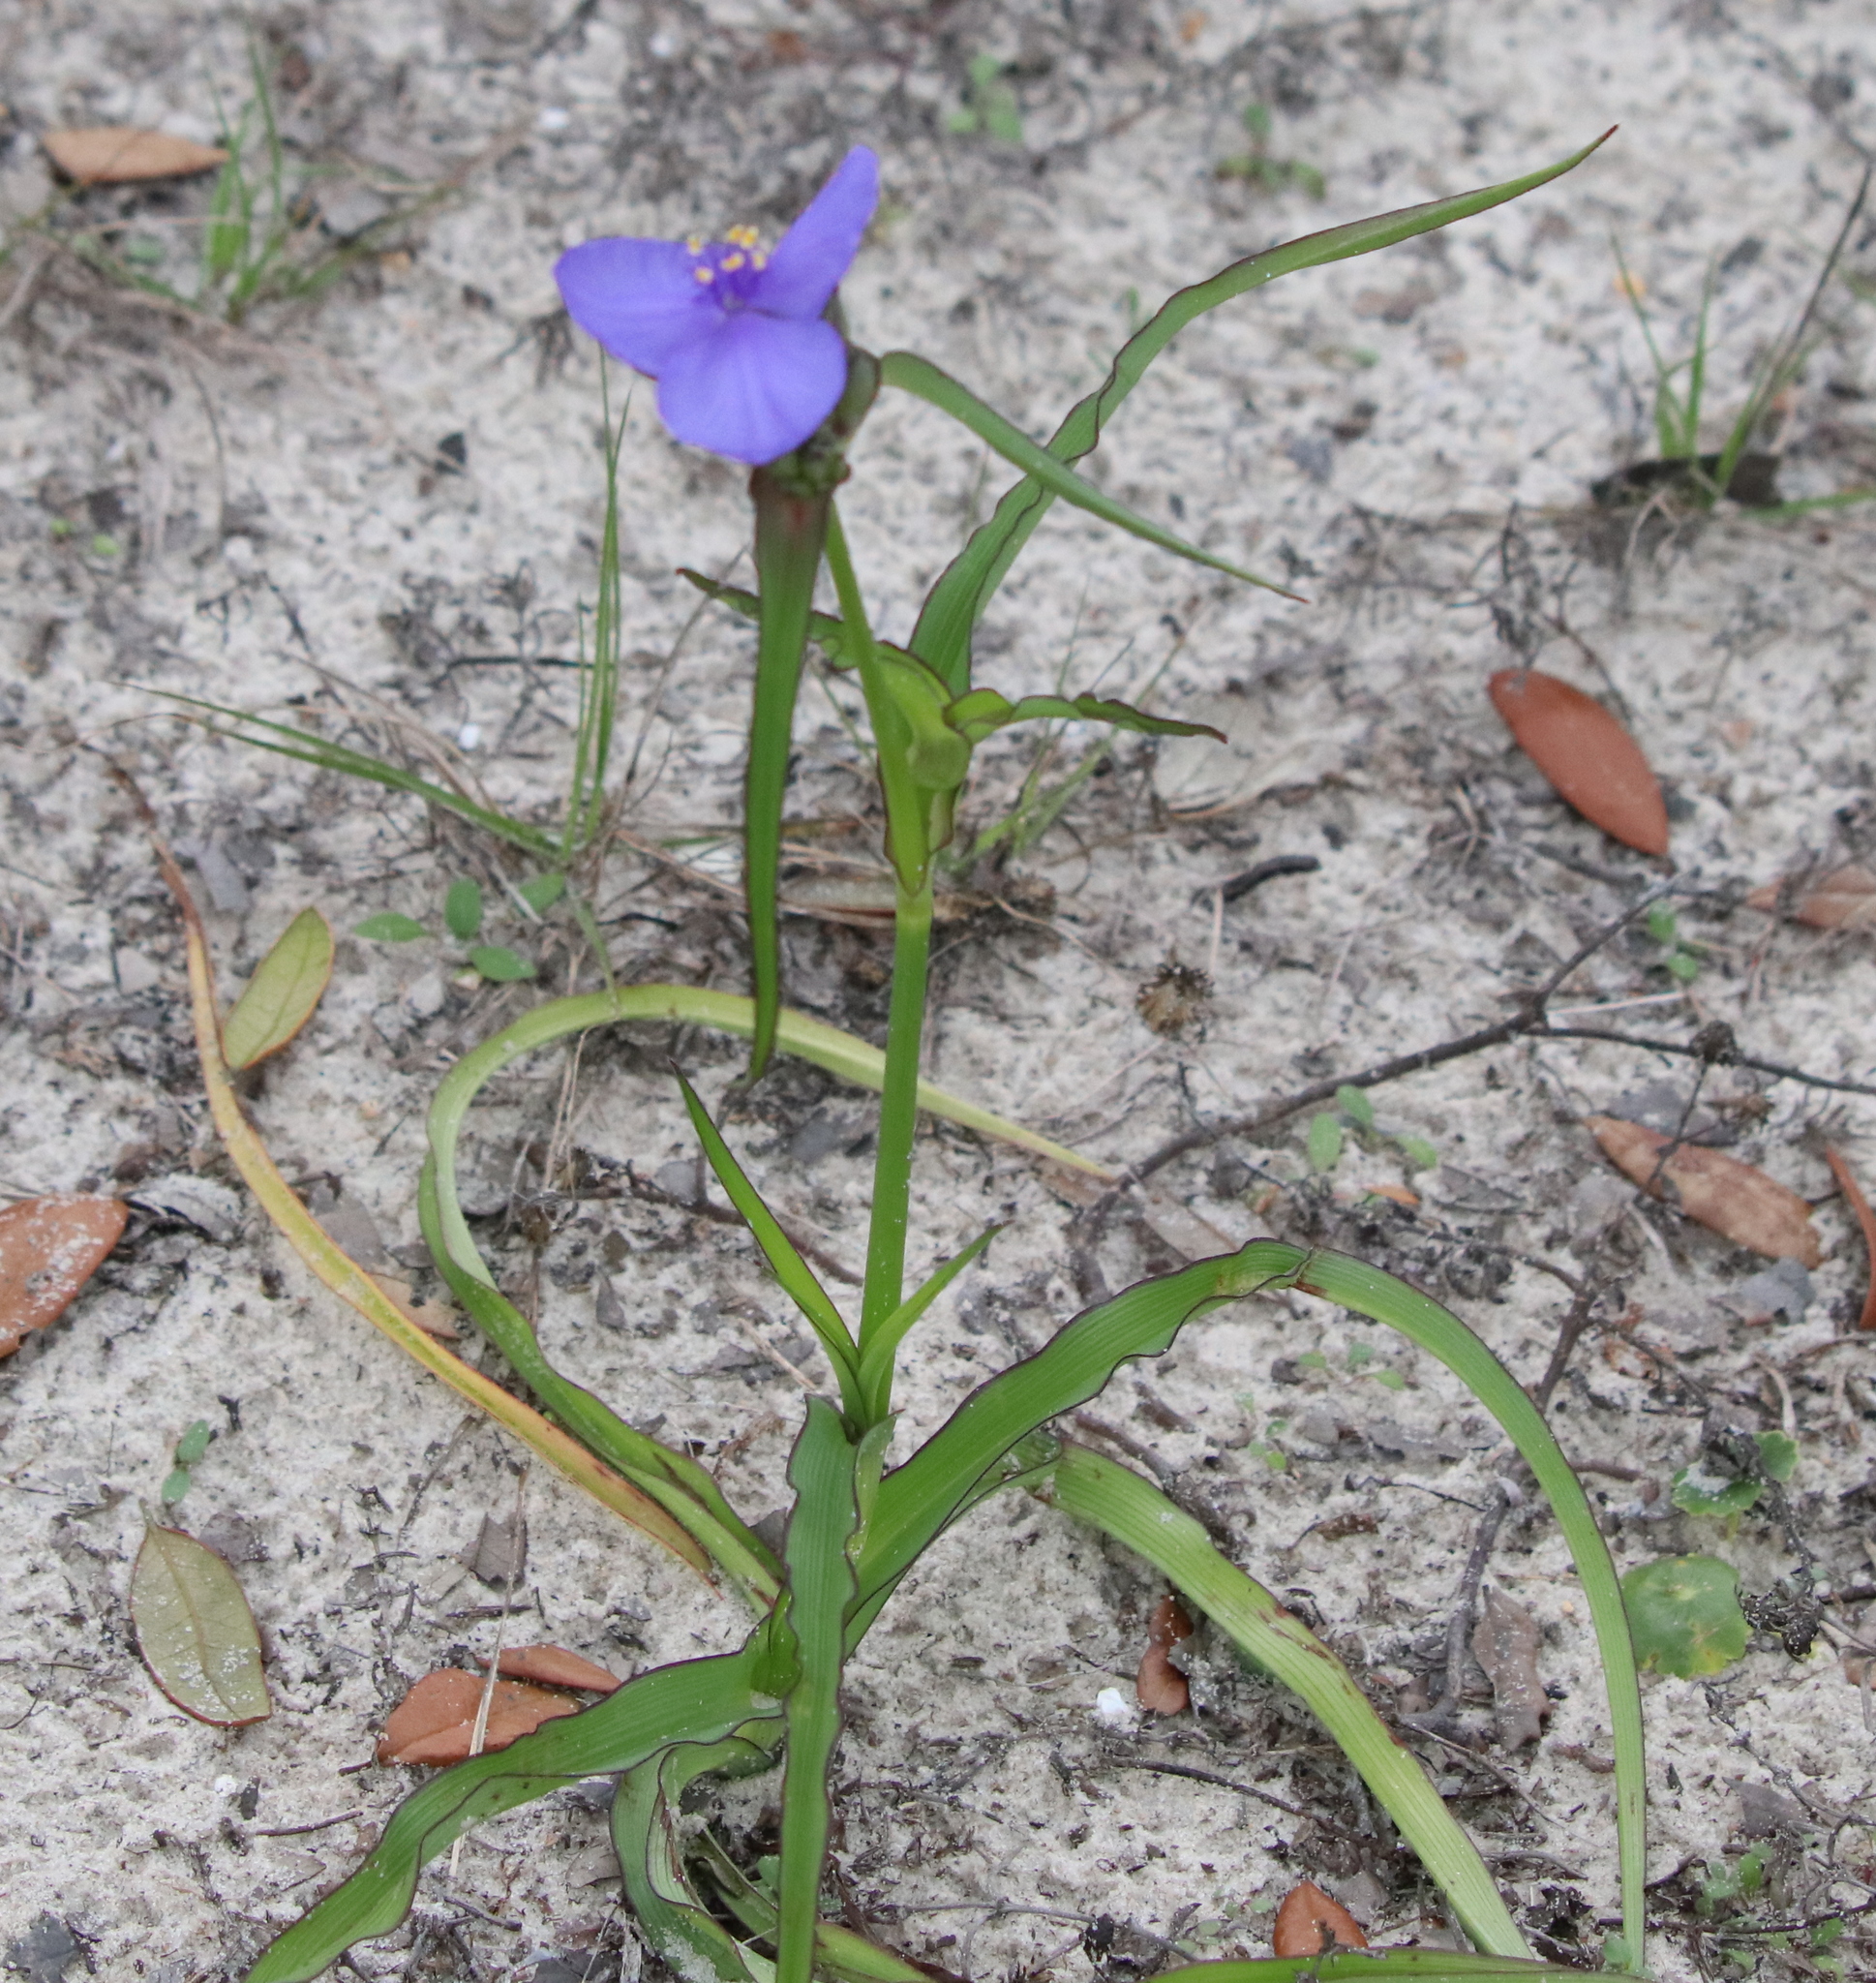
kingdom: Plantae
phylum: Tracheophyta
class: Liliopsida
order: Commelinales
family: Commelinaceae
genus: Tradescantia
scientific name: Tradescantia ohiensis
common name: Ohio spiderwort
